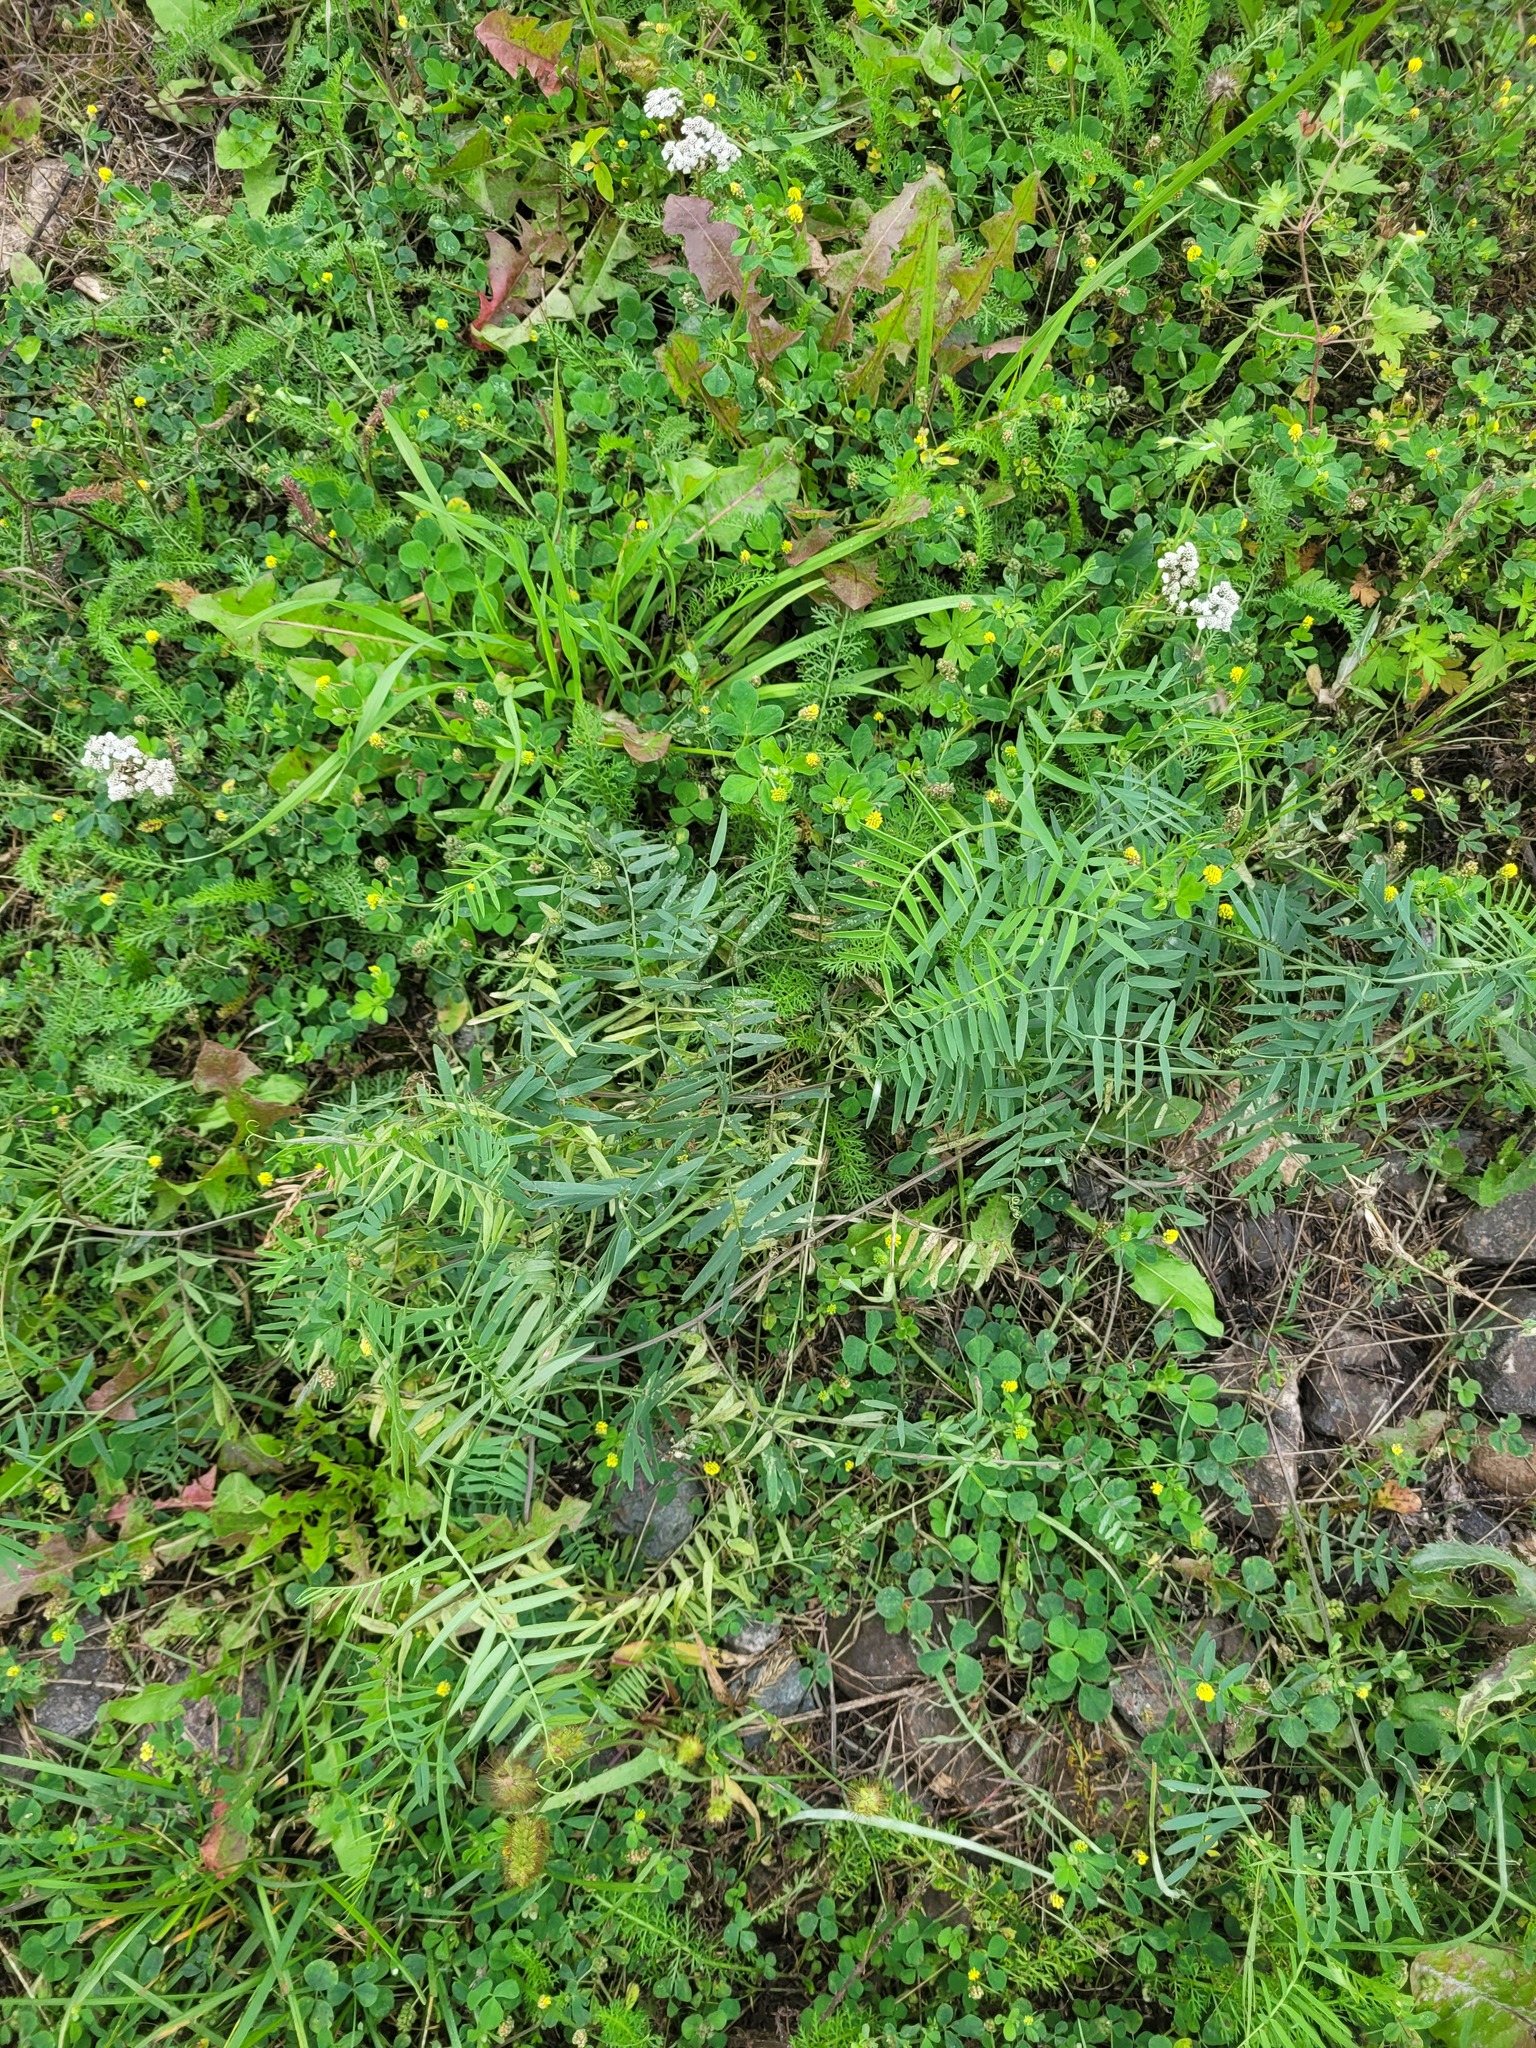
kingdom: Plantae
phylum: Tracheophyta
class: Magnoliopsida
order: Fabales
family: Fabaceae
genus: Vicia
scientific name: Vicia cracca
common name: Bird vetch
